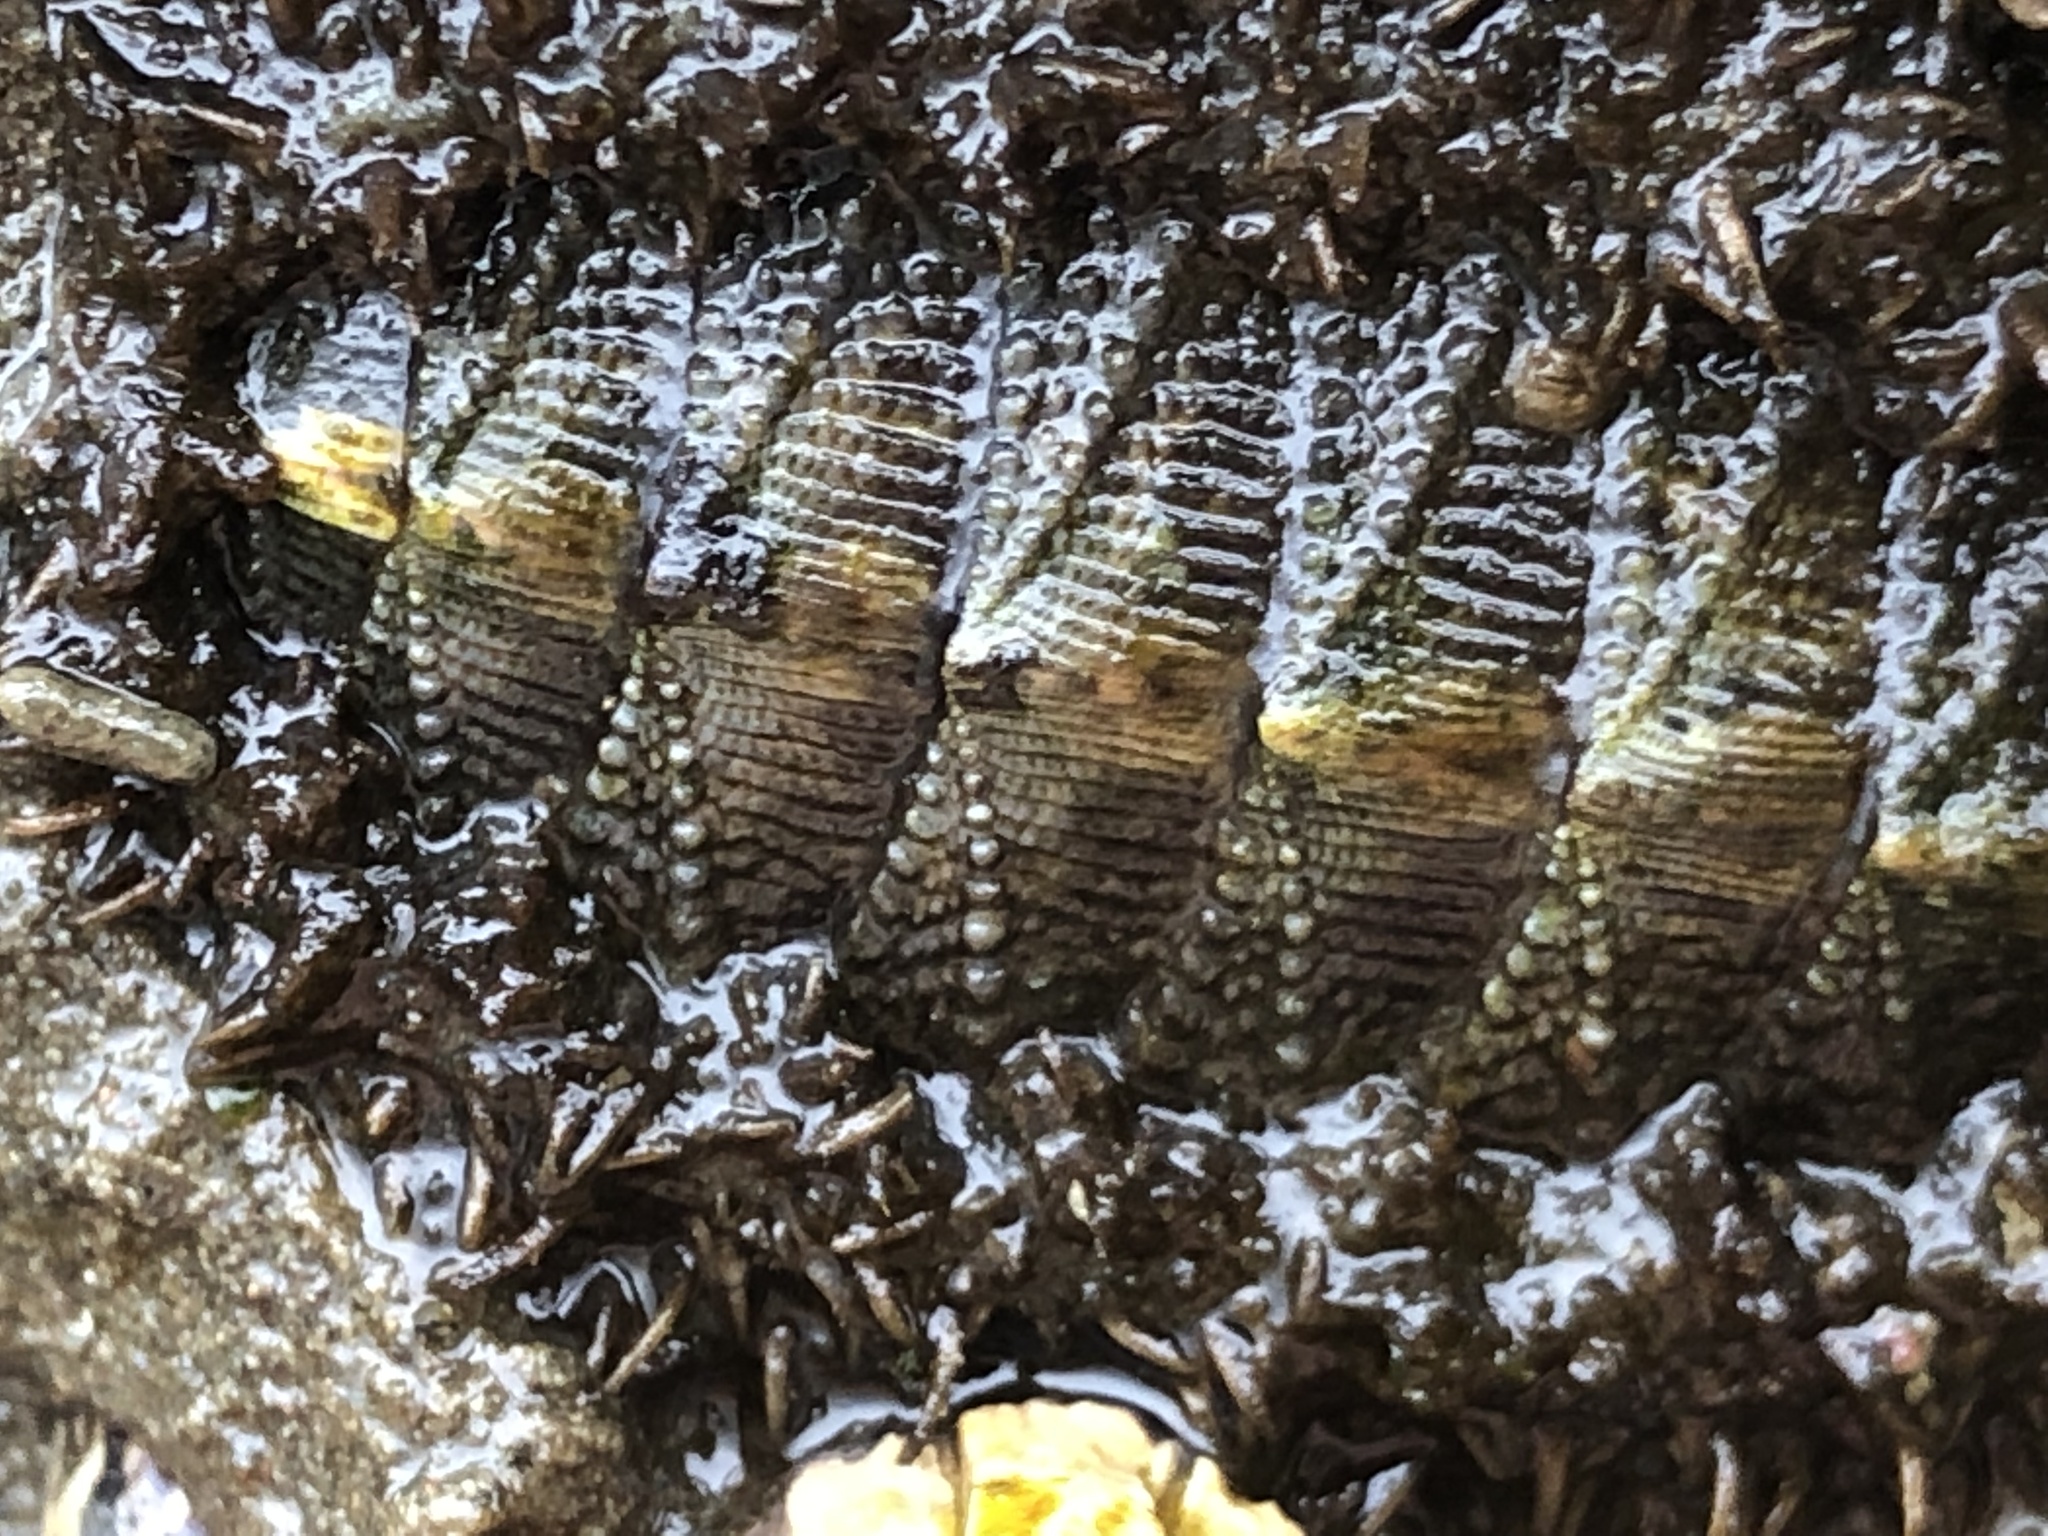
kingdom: Animalia
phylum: Mollusca
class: Polyplacophora
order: Chitonida
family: Mopaliidae
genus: Mopalia
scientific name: Mopalia muscosa
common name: Mossy chiton
